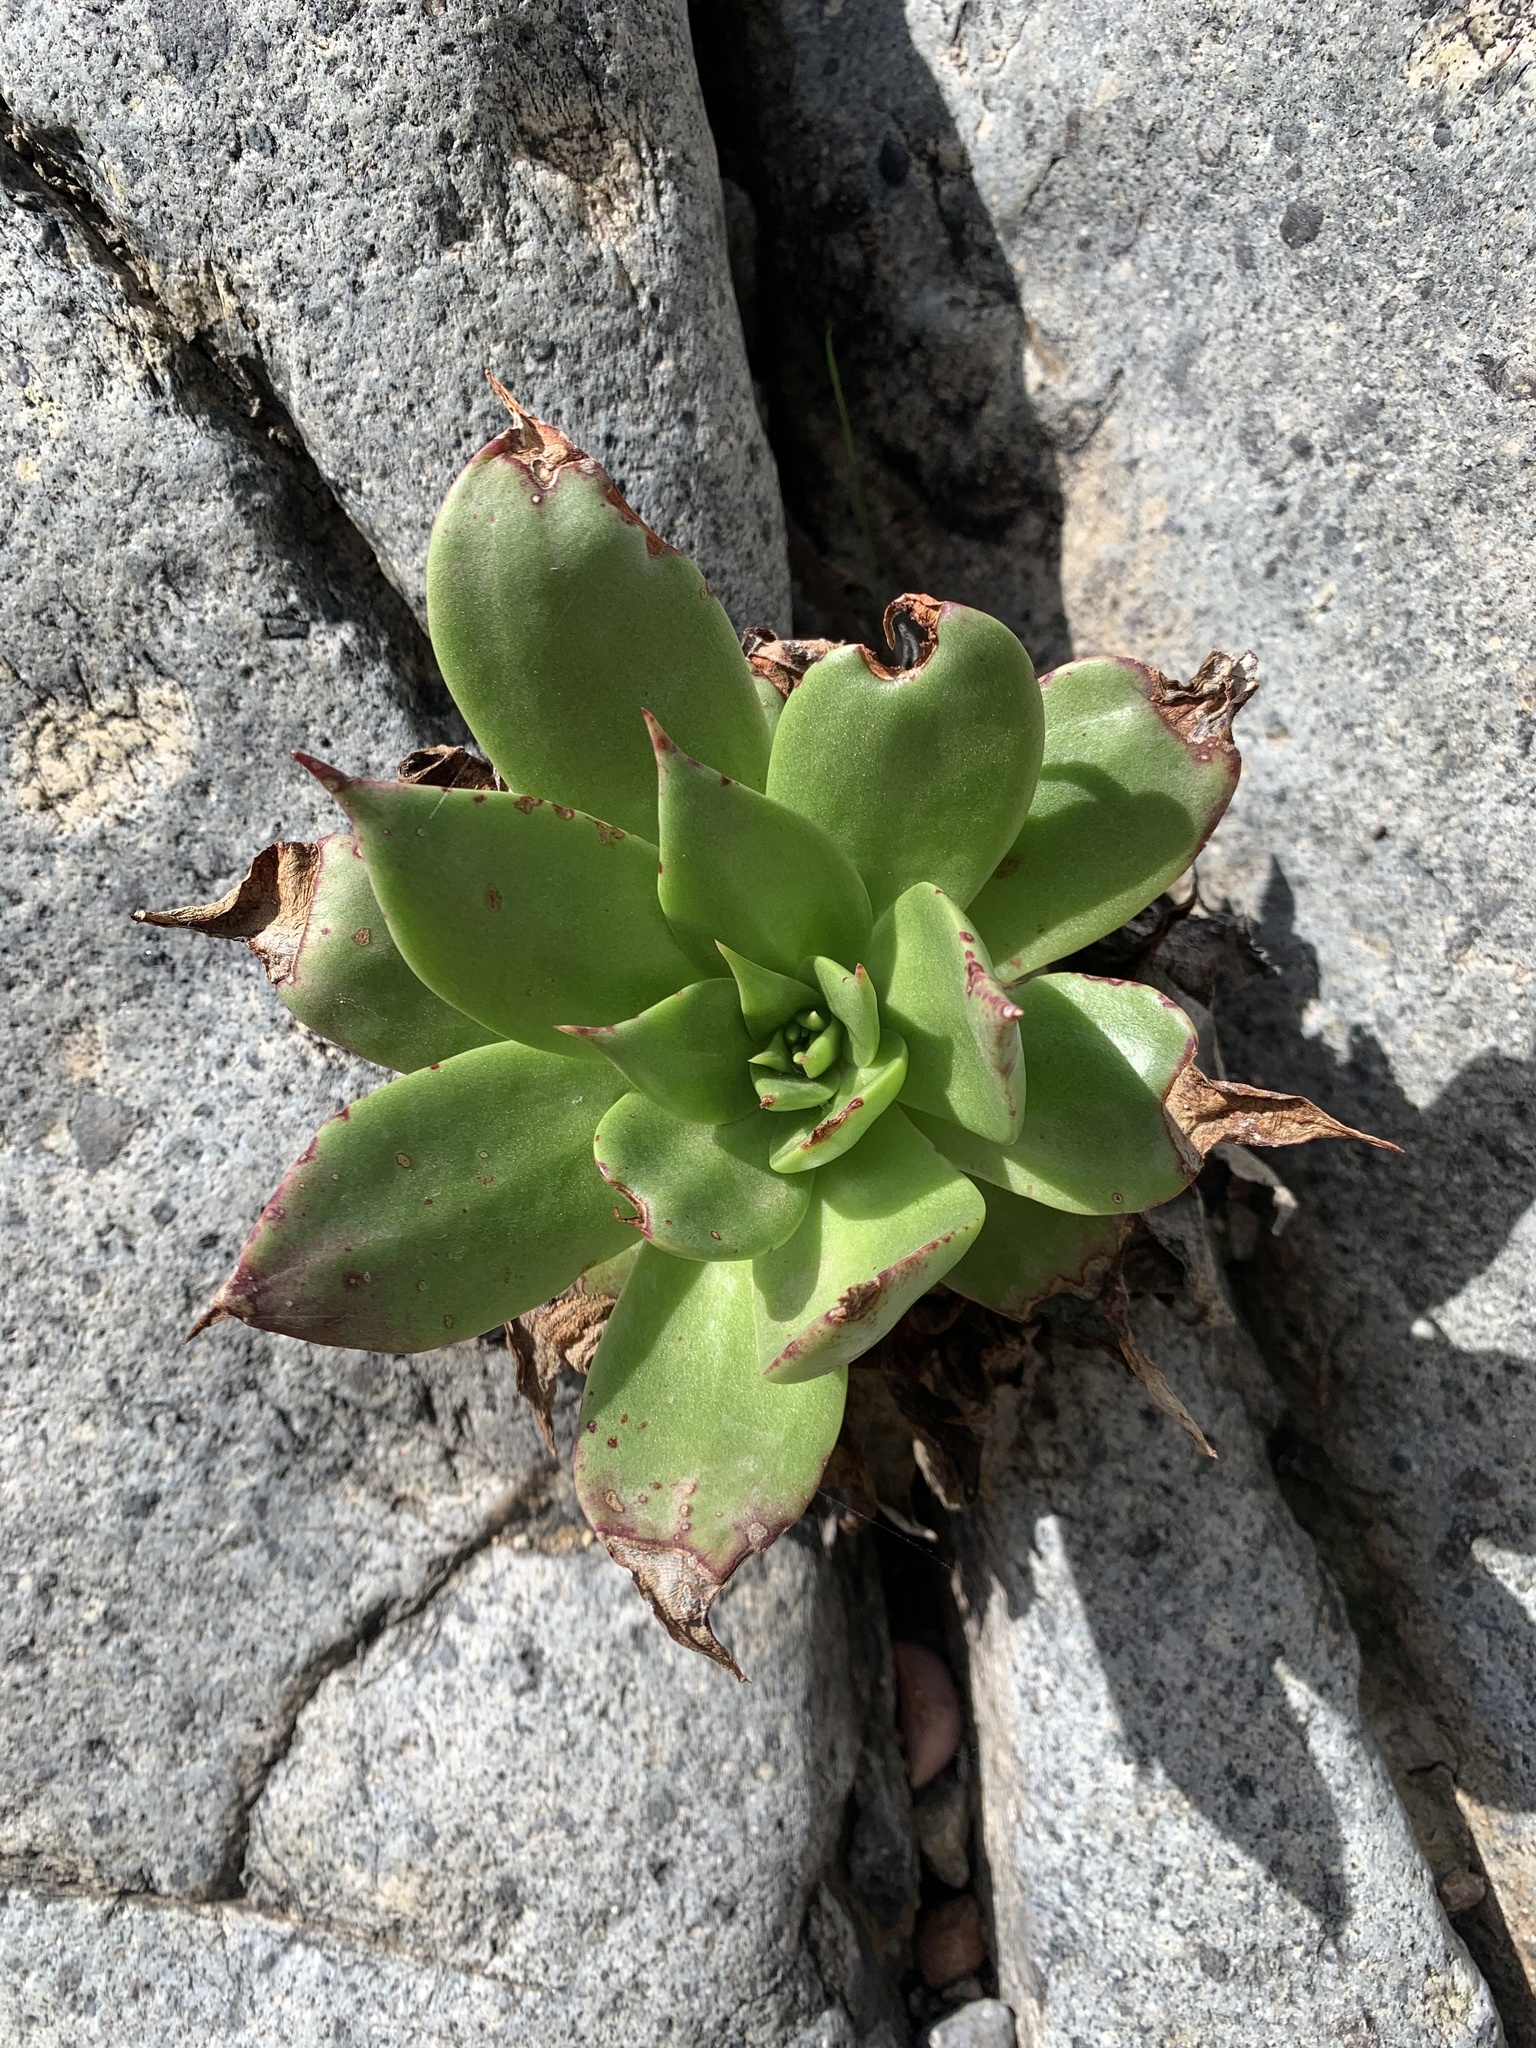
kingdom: Plantae
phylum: Tracheophyta
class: Magnoliopsida
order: Saxifragales
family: Crassulaceae
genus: Dudleya
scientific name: Dudleya brittonii
